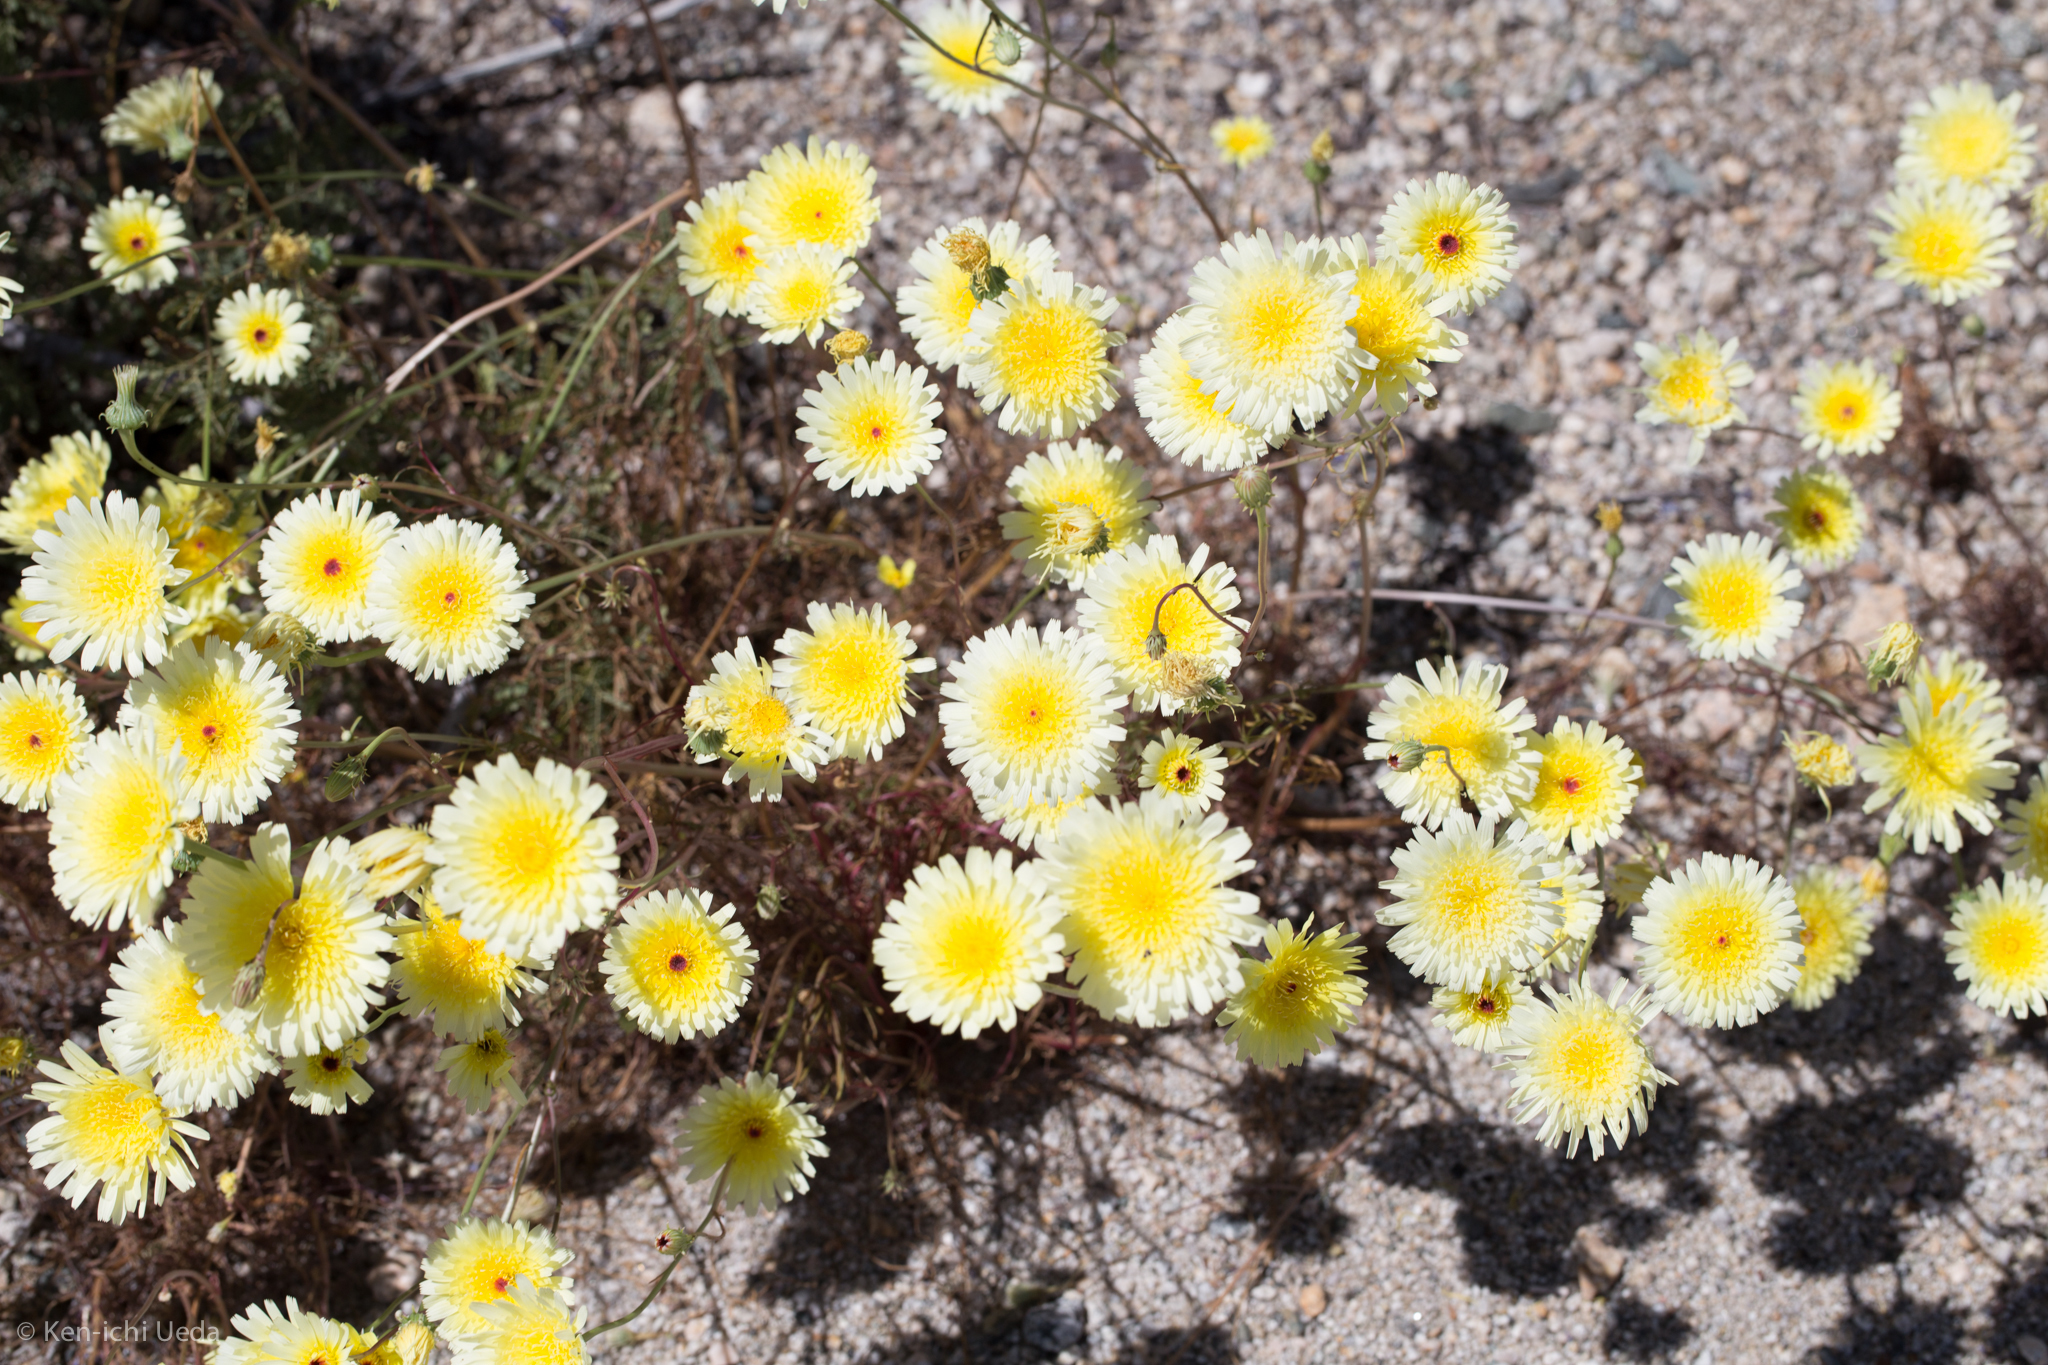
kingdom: Plantae
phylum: Tracheophyta
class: Magnoliopsida
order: Asterales
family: Asteraceae
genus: Malacothrix
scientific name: Malacothrix glabrata
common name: Smooth desert-dandelion
